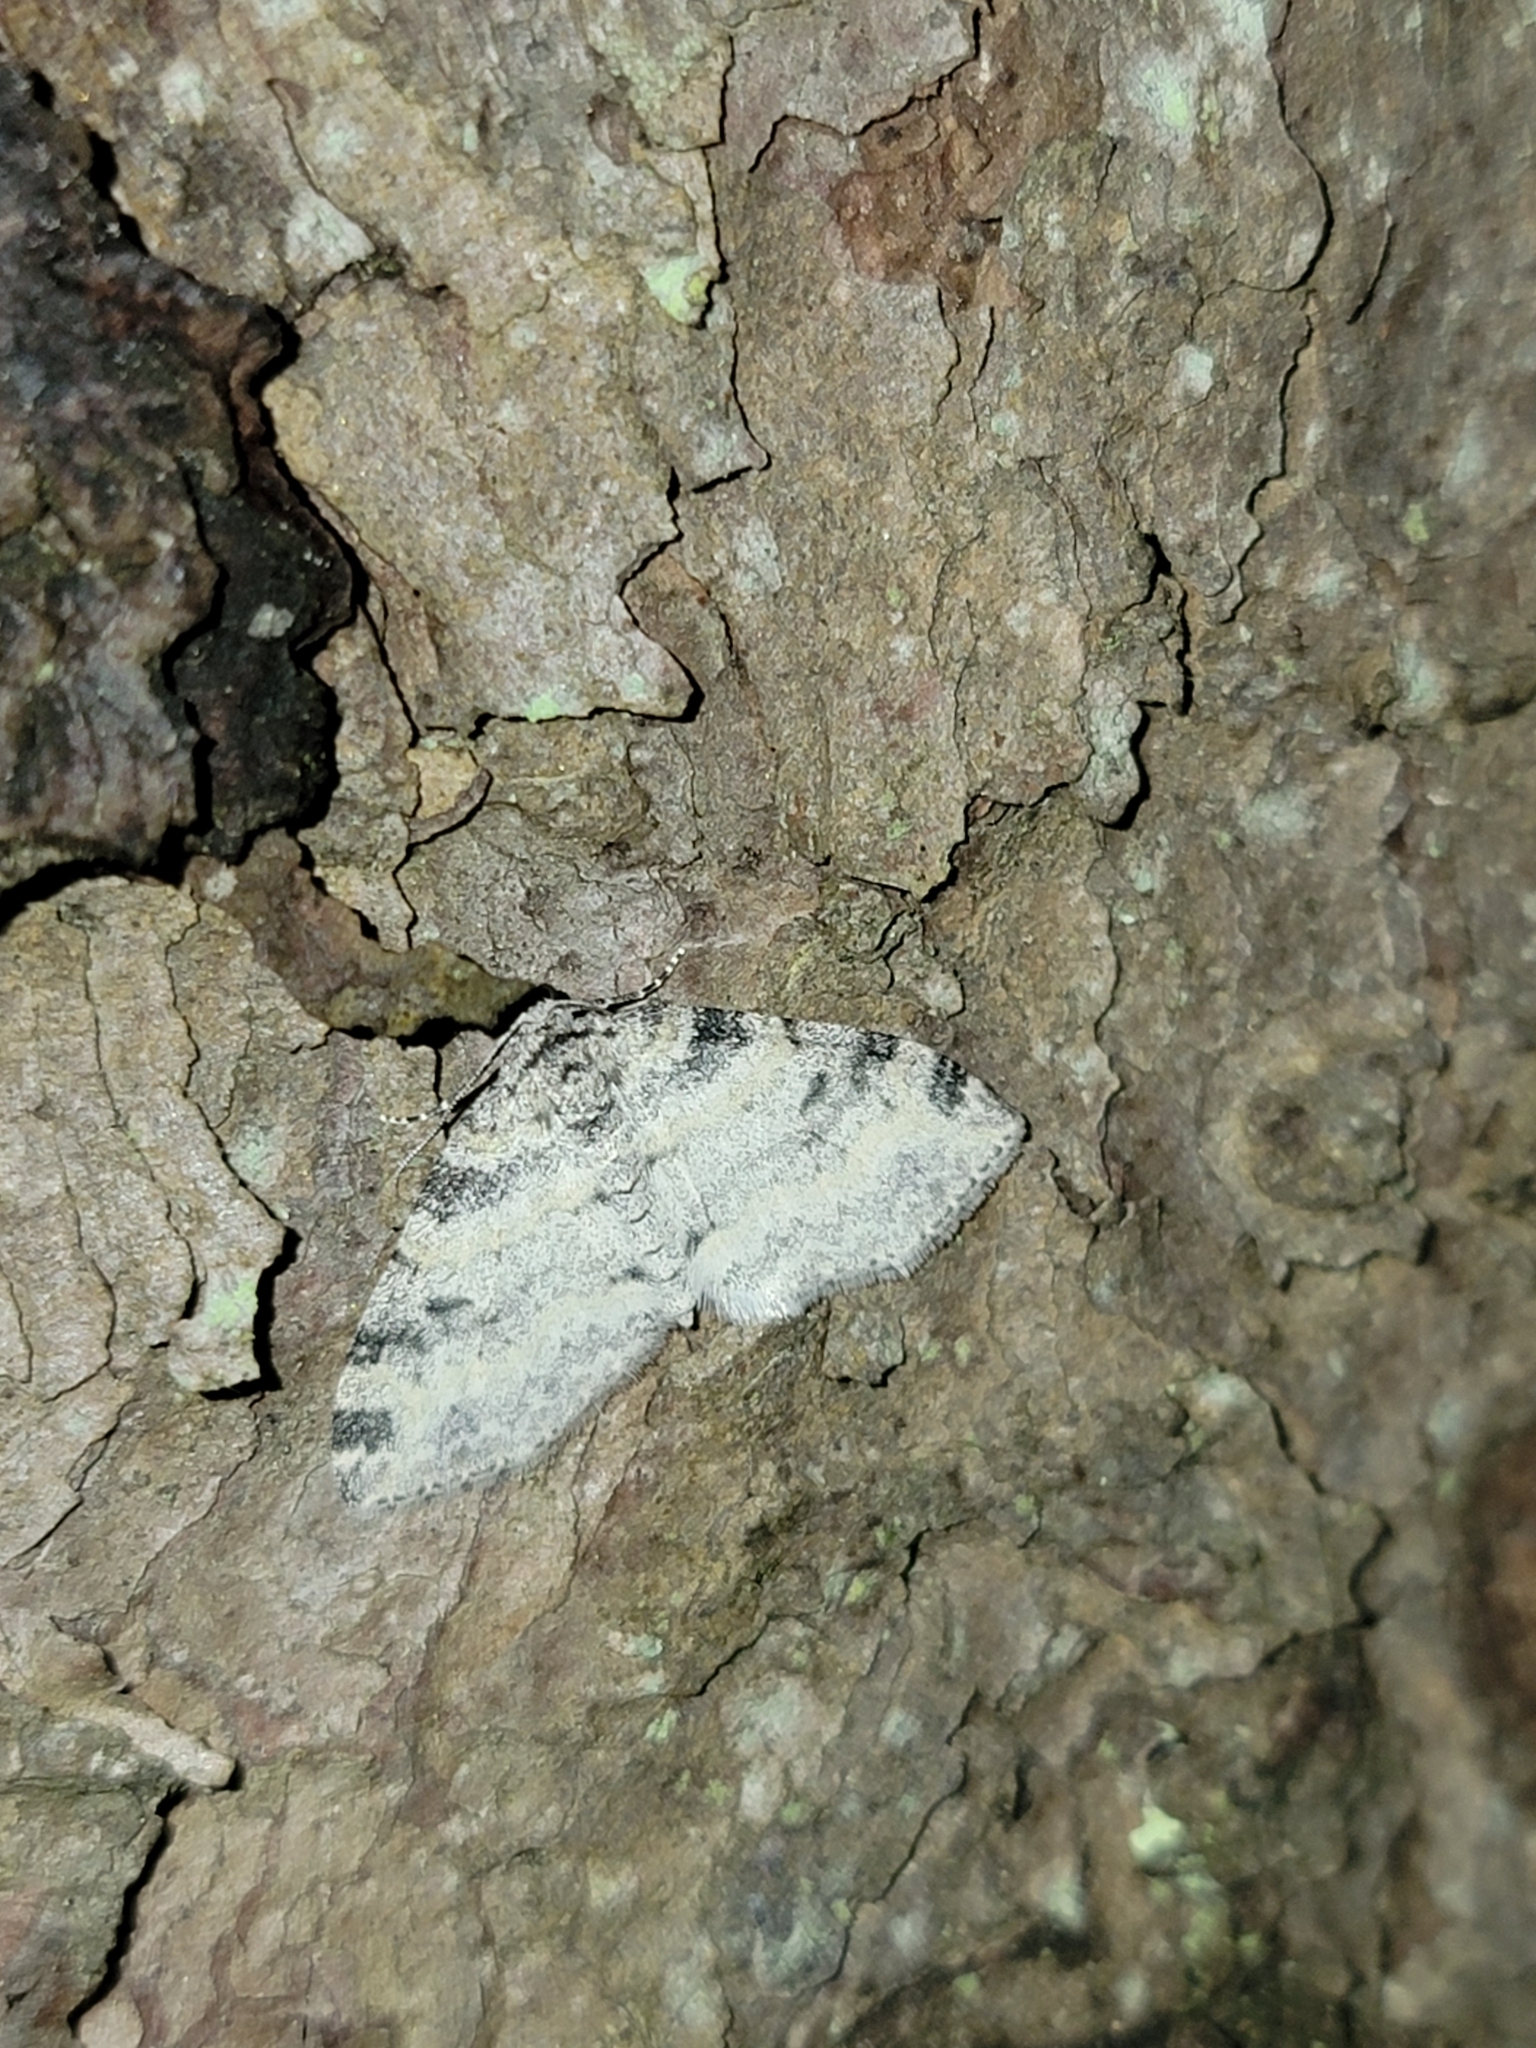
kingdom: Animalia
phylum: Arthropoda
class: Insecta
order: Lepidoptera
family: Geometridae
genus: Lobophora
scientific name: Lobophora nivigerata
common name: Powdered bigwing
